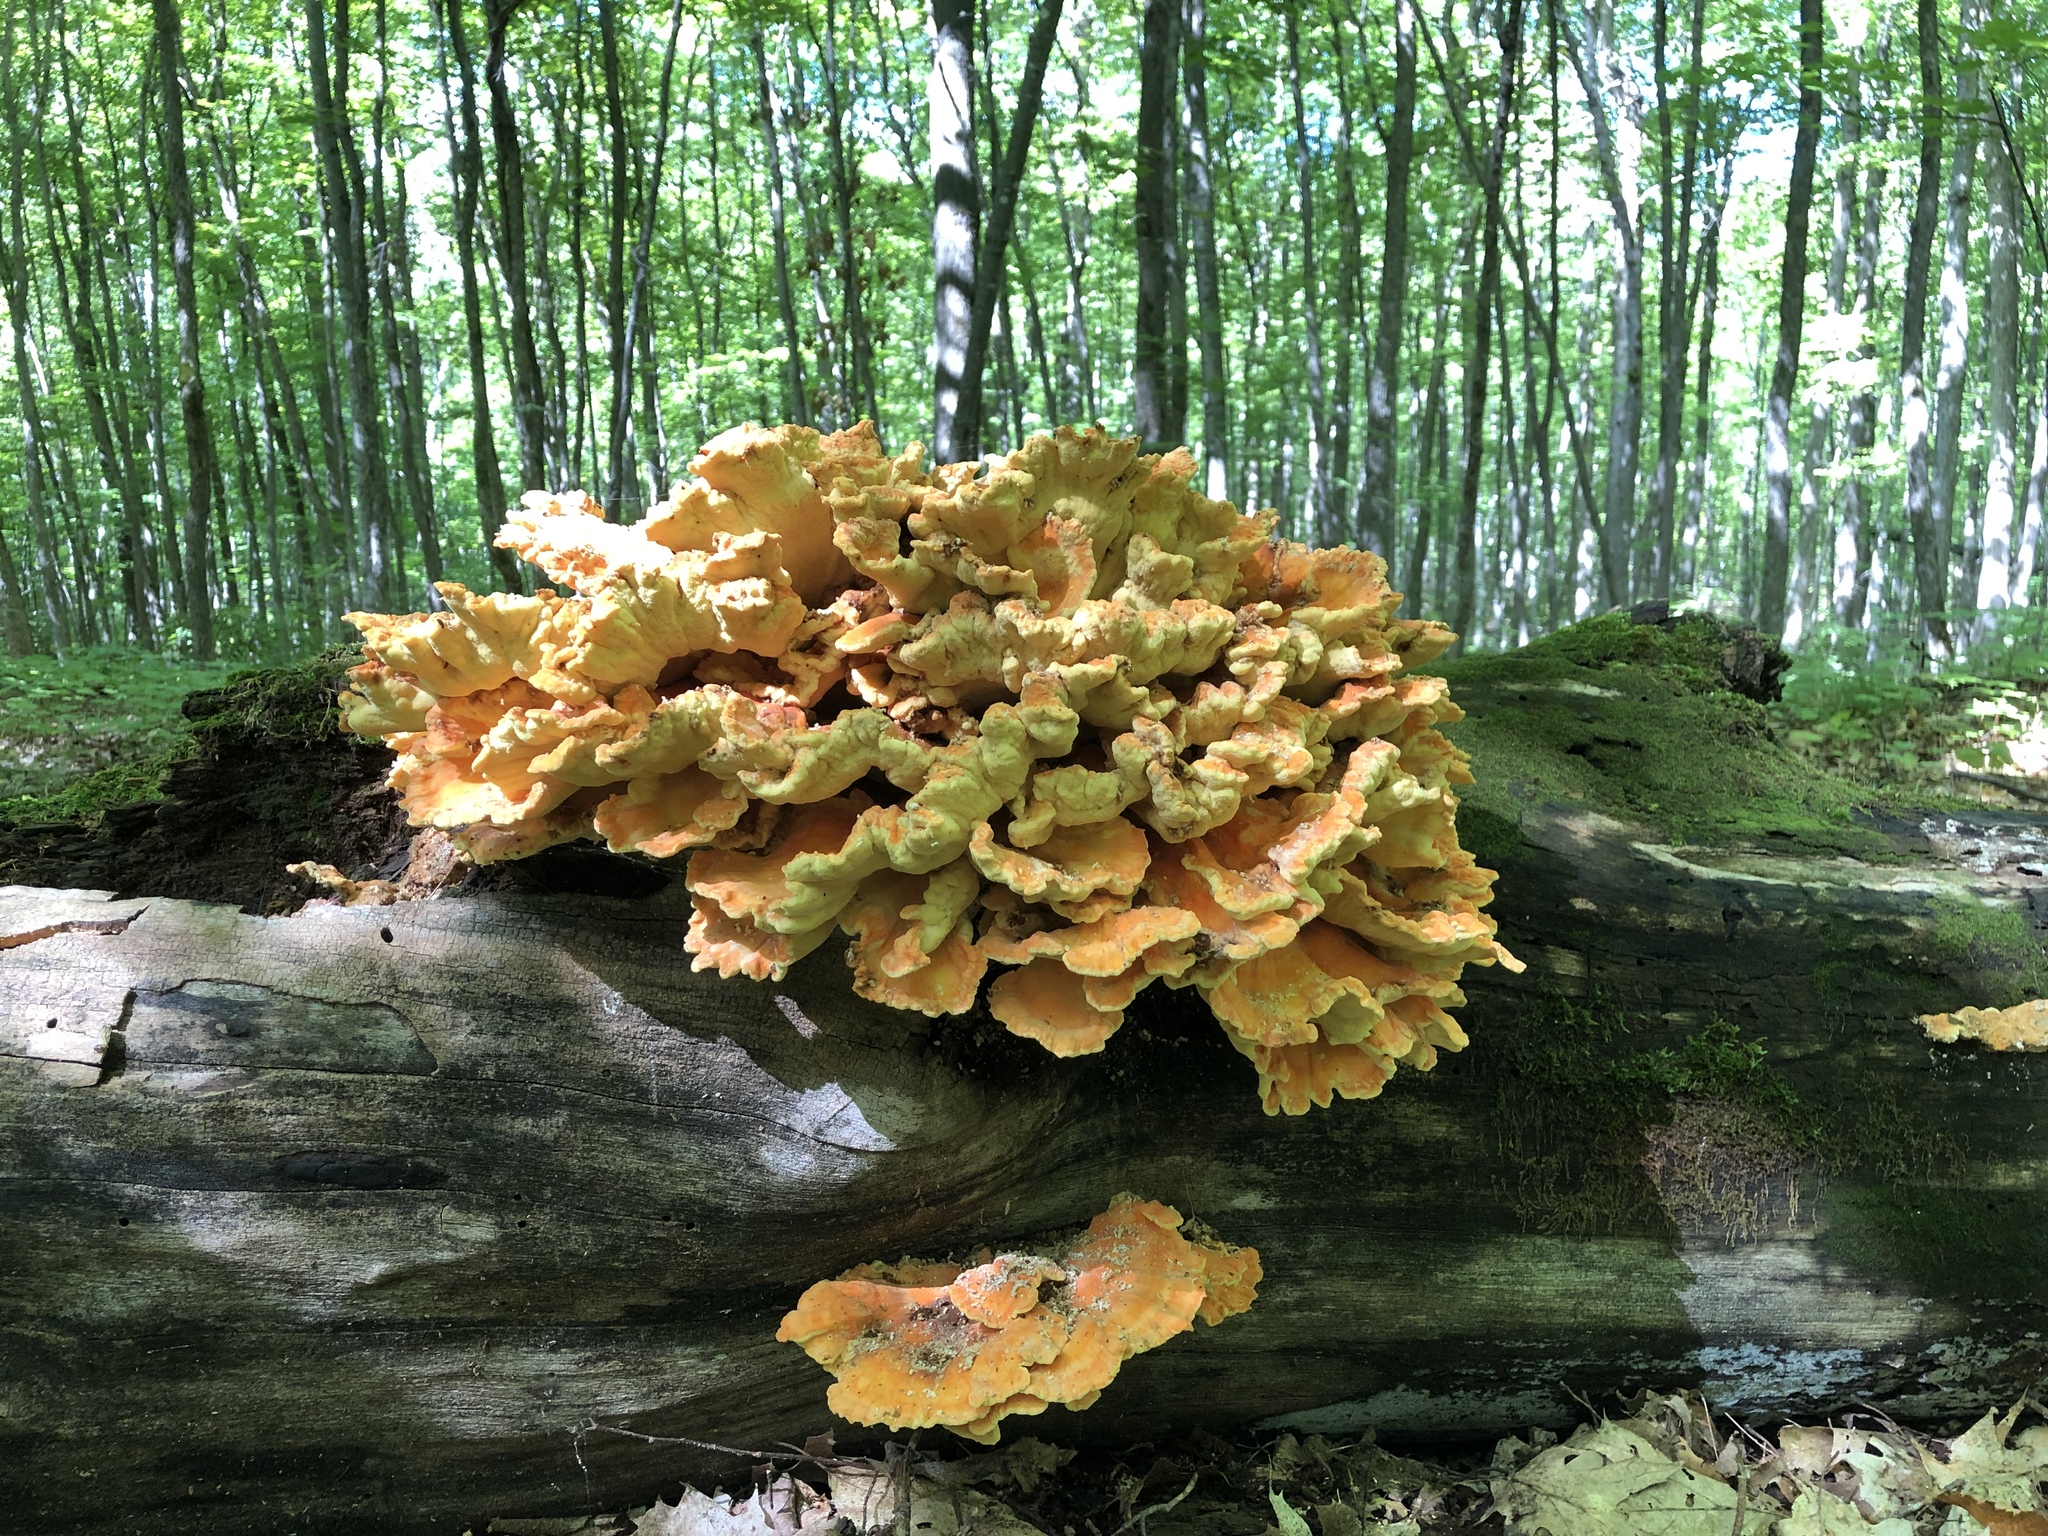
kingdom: Fungi
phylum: Basidiomycota
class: Agaricomycetes
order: Polyporales
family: Laetiporaceae
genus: Laetiporus
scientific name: Laetiporus sulphureus
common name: Chicken of the woods
